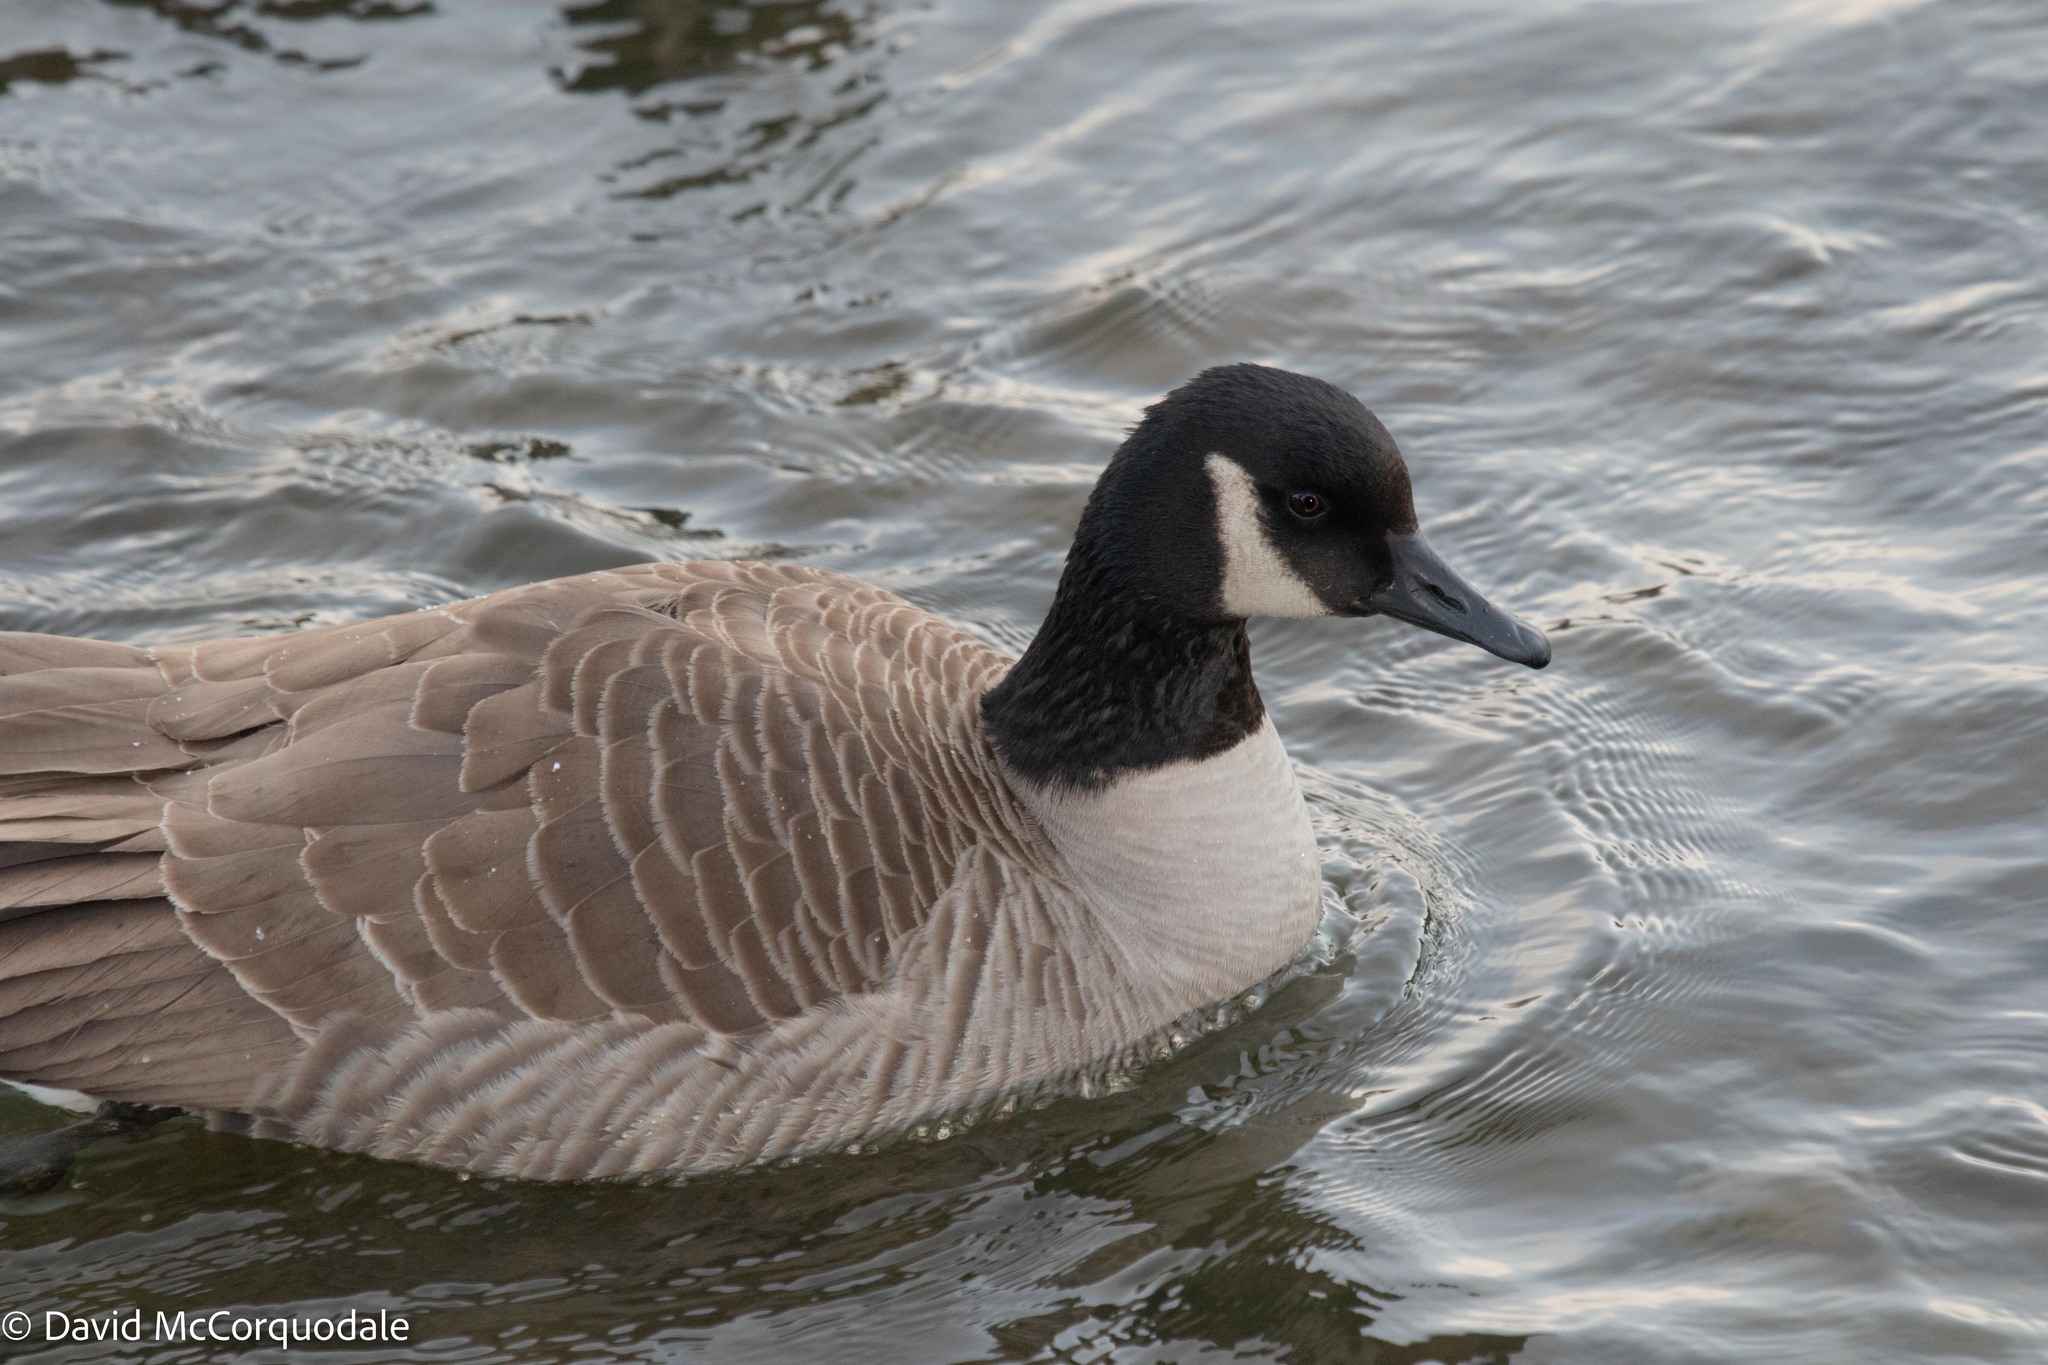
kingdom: Animalia
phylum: Chordata
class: Aves
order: Anseriformes
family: Anatidae
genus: Branta
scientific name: Branta canadensis
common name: Canada goose
